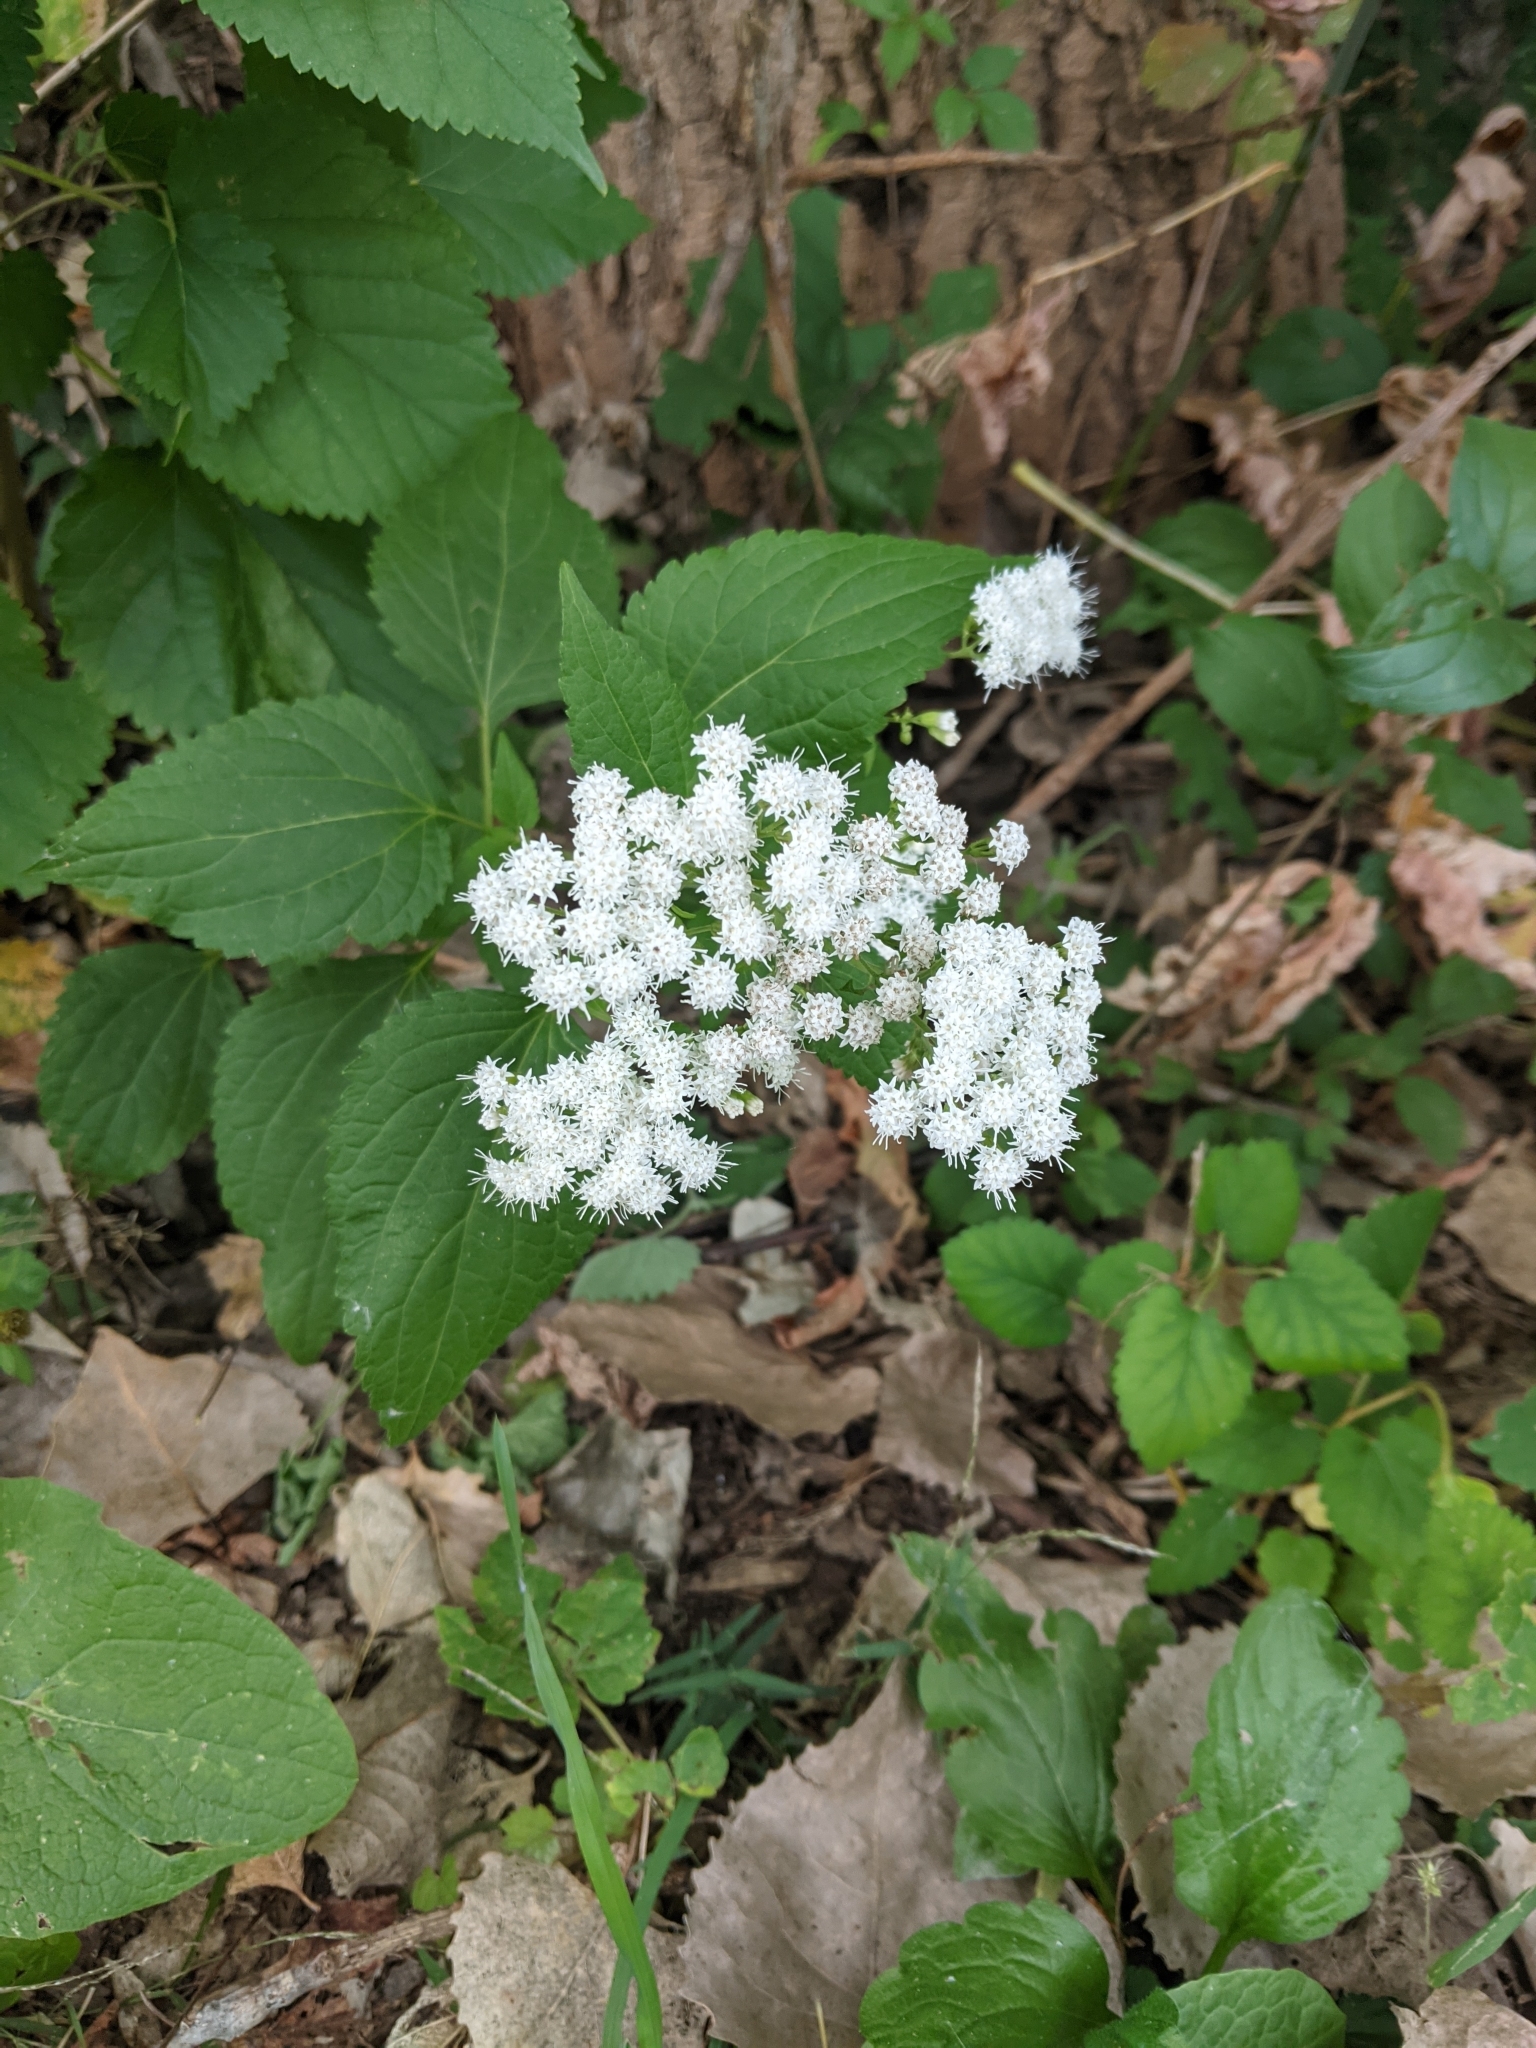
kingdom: Plantae
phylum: Tracheophyta
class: Magnoliopsida
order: Asterales
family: Asteraceae
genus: Ageratina
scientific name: Ageratina altissima
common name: White snakeroot
